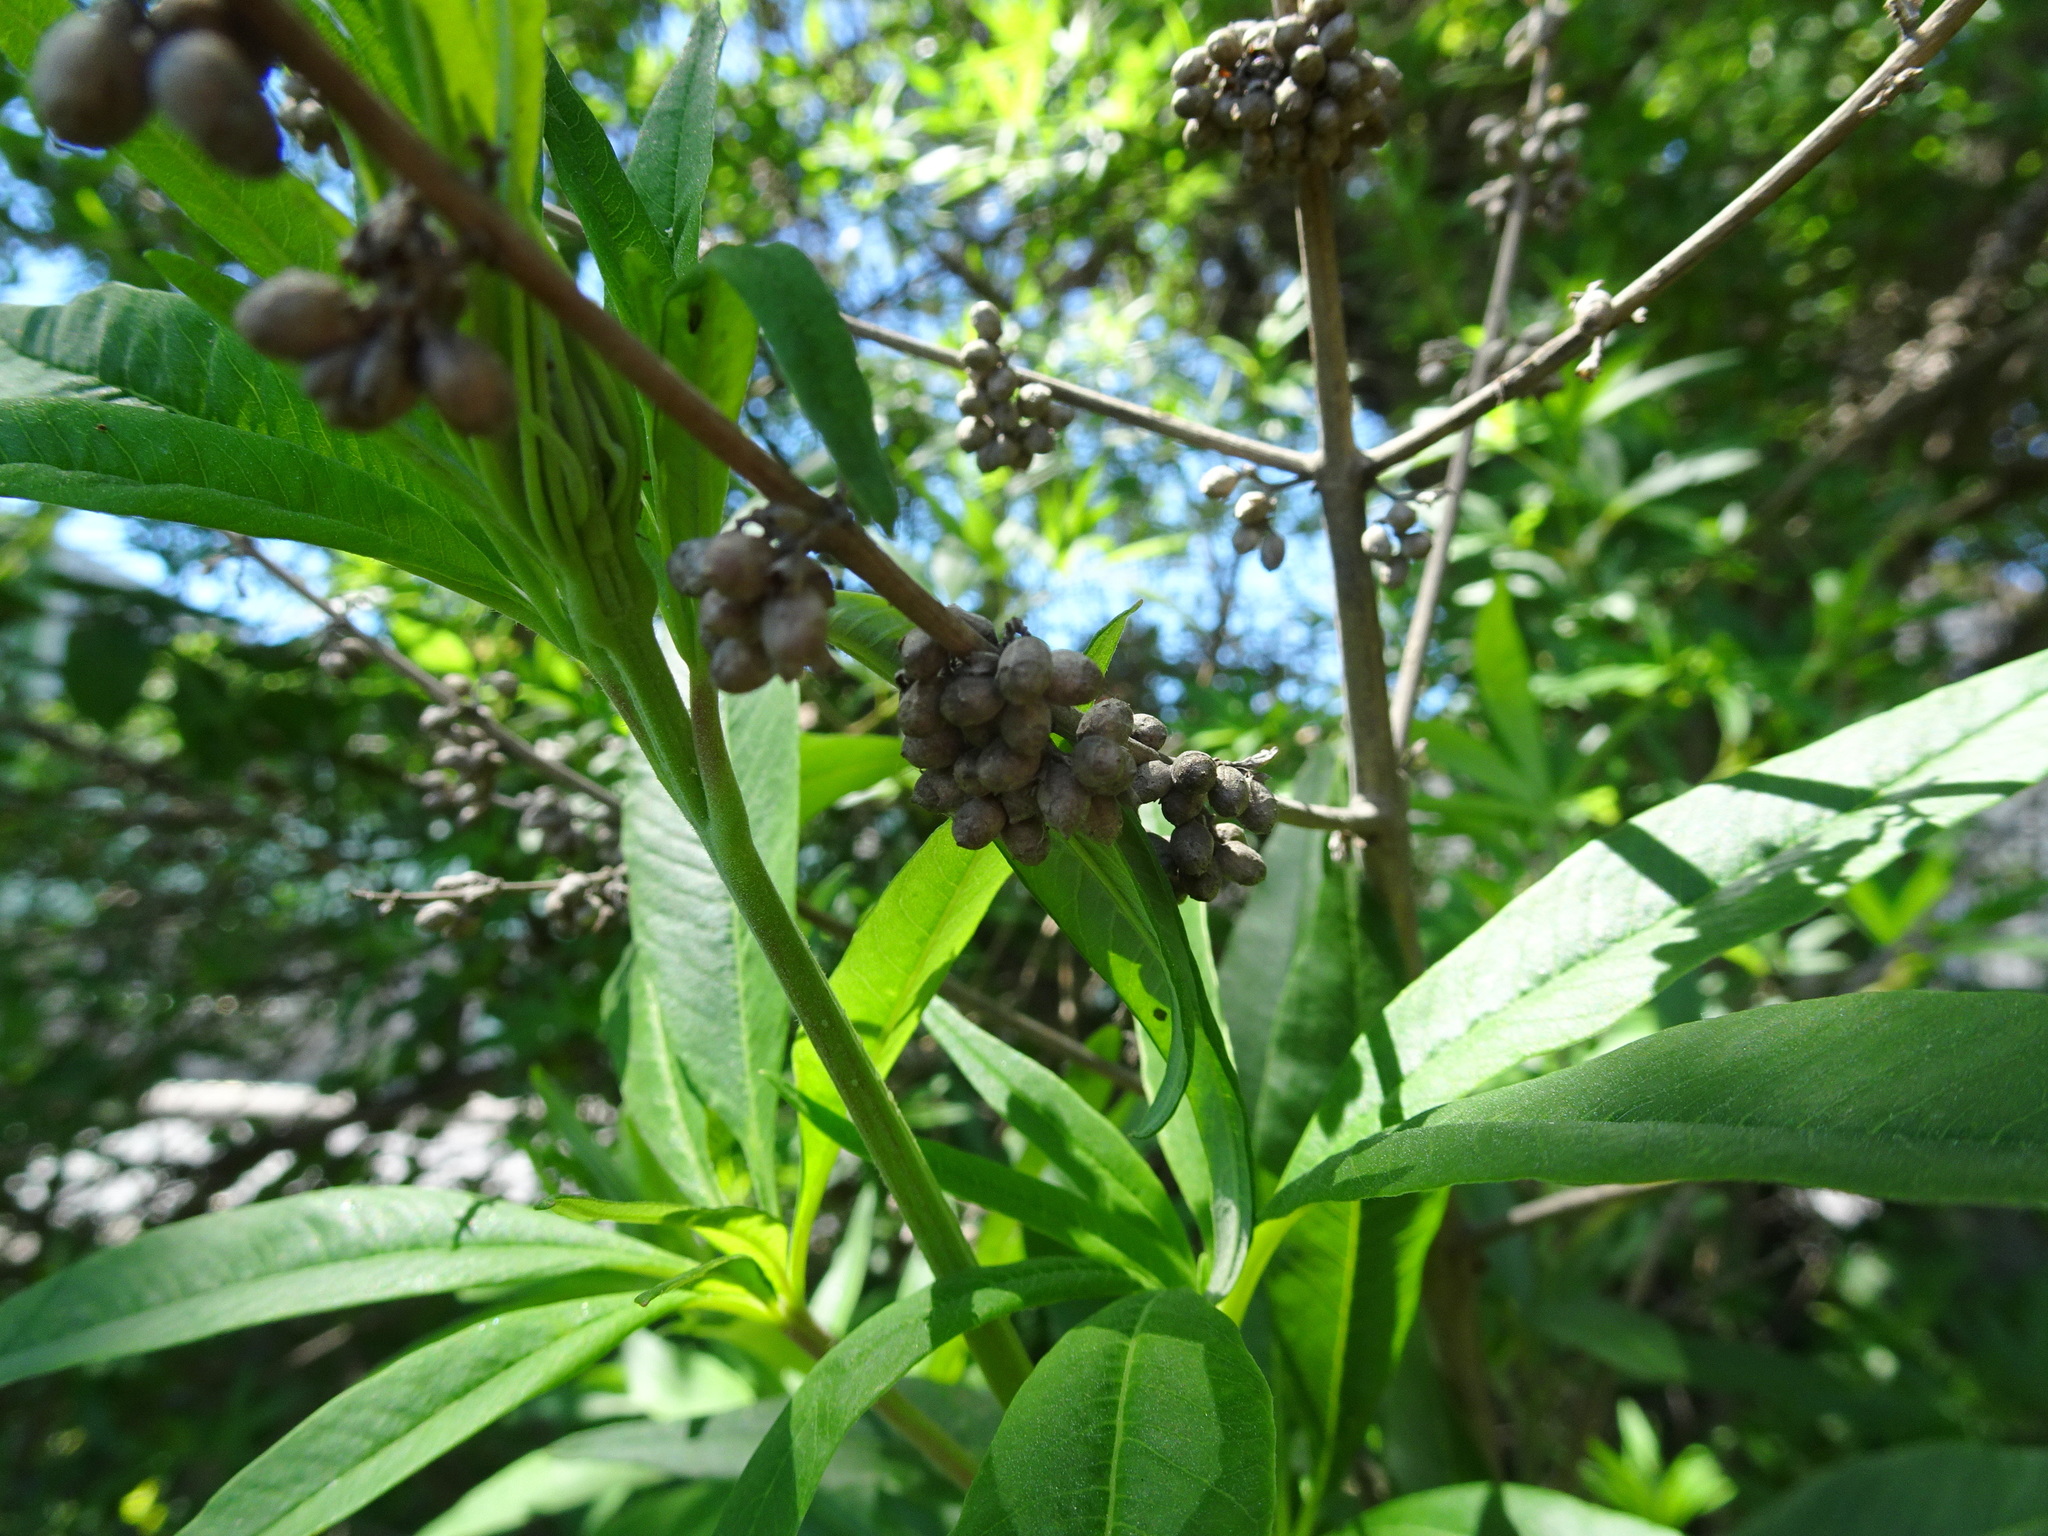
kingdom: Plantae
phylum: Tracheophyta
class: Magnoliopsida
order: Lamiales
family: Lamiaceae
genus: Vitex
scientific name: Vitex agnus-castus
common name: Chasteberry
